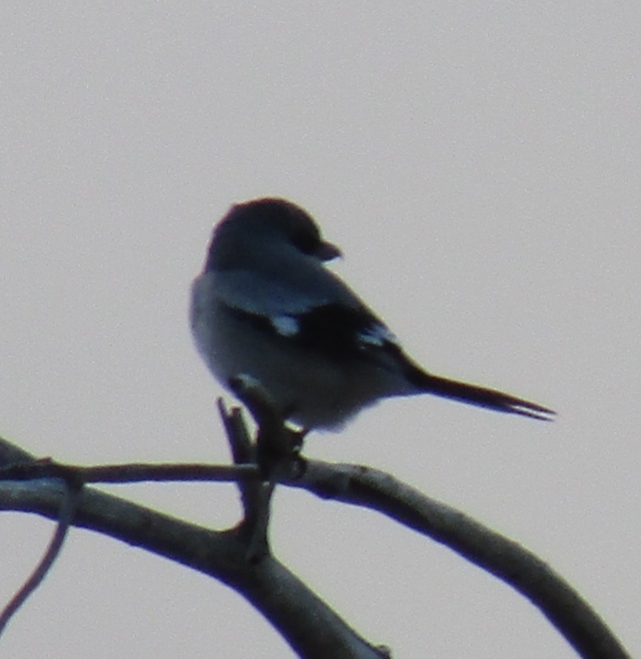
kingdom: Animalia
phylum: Chordata
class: Aves
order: Passeriformes
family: Laniidae
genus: Lanius
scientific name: Lanius ludovicianus
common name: Loggerhead shrike
